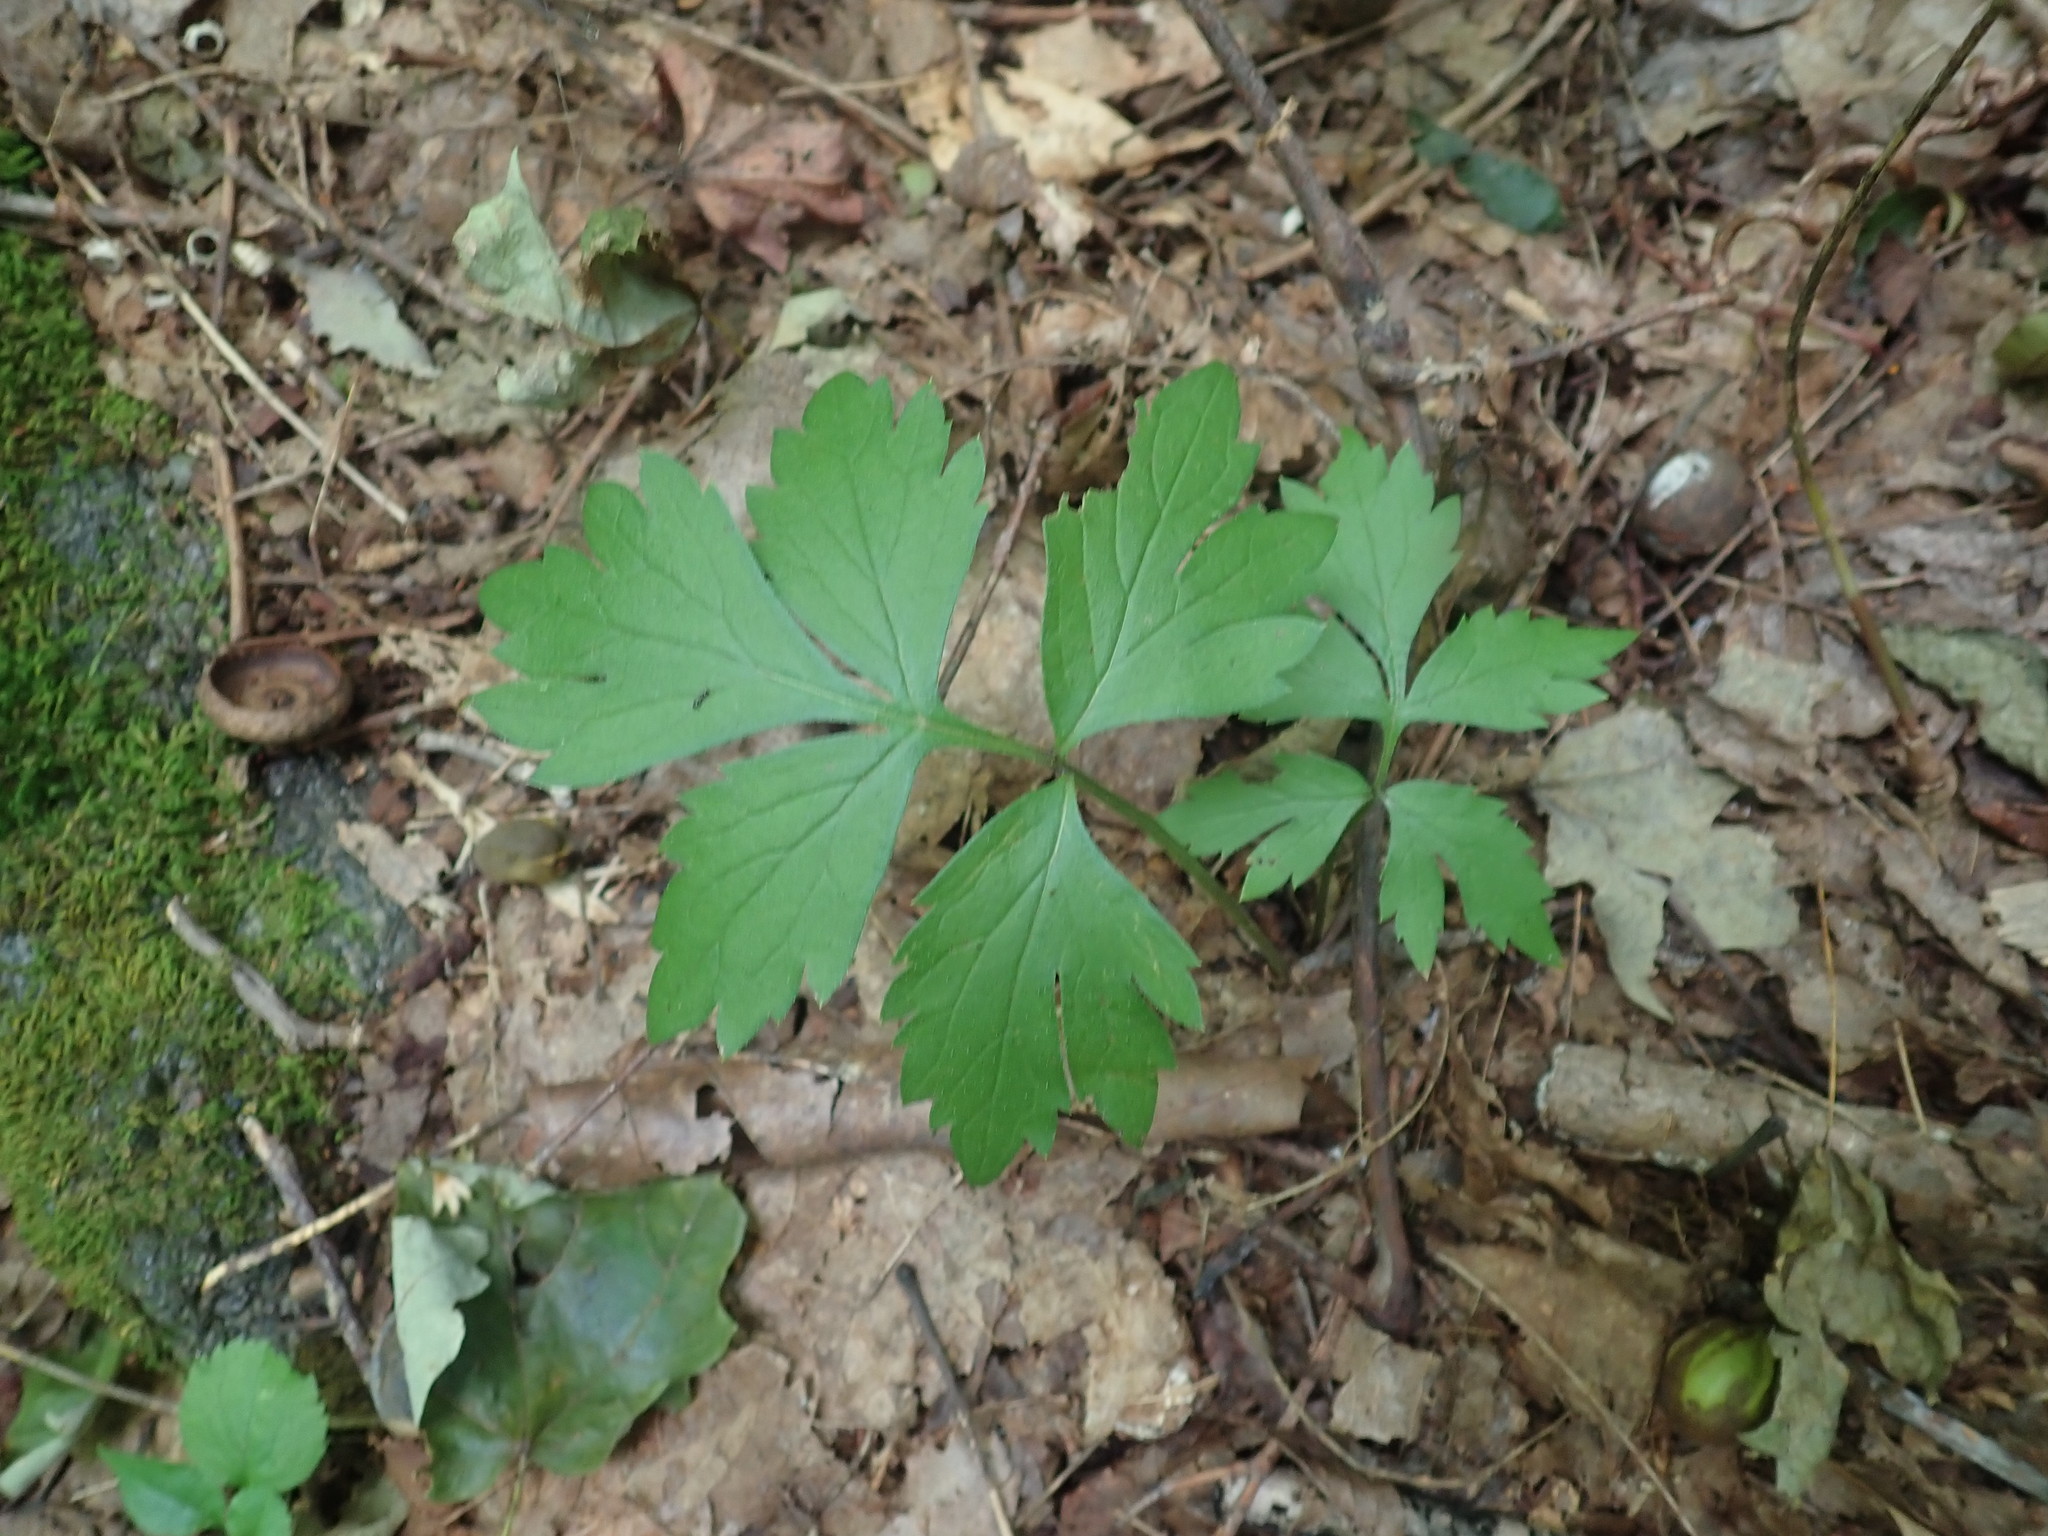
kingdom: Plantae
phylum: Tracheophyta
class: Magnoliopsida
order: Boraginales
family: Hydrophyllaceae
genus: Hydrophyllum
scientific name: Hydrophyllum virginianum
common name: Virginia waterleaf
